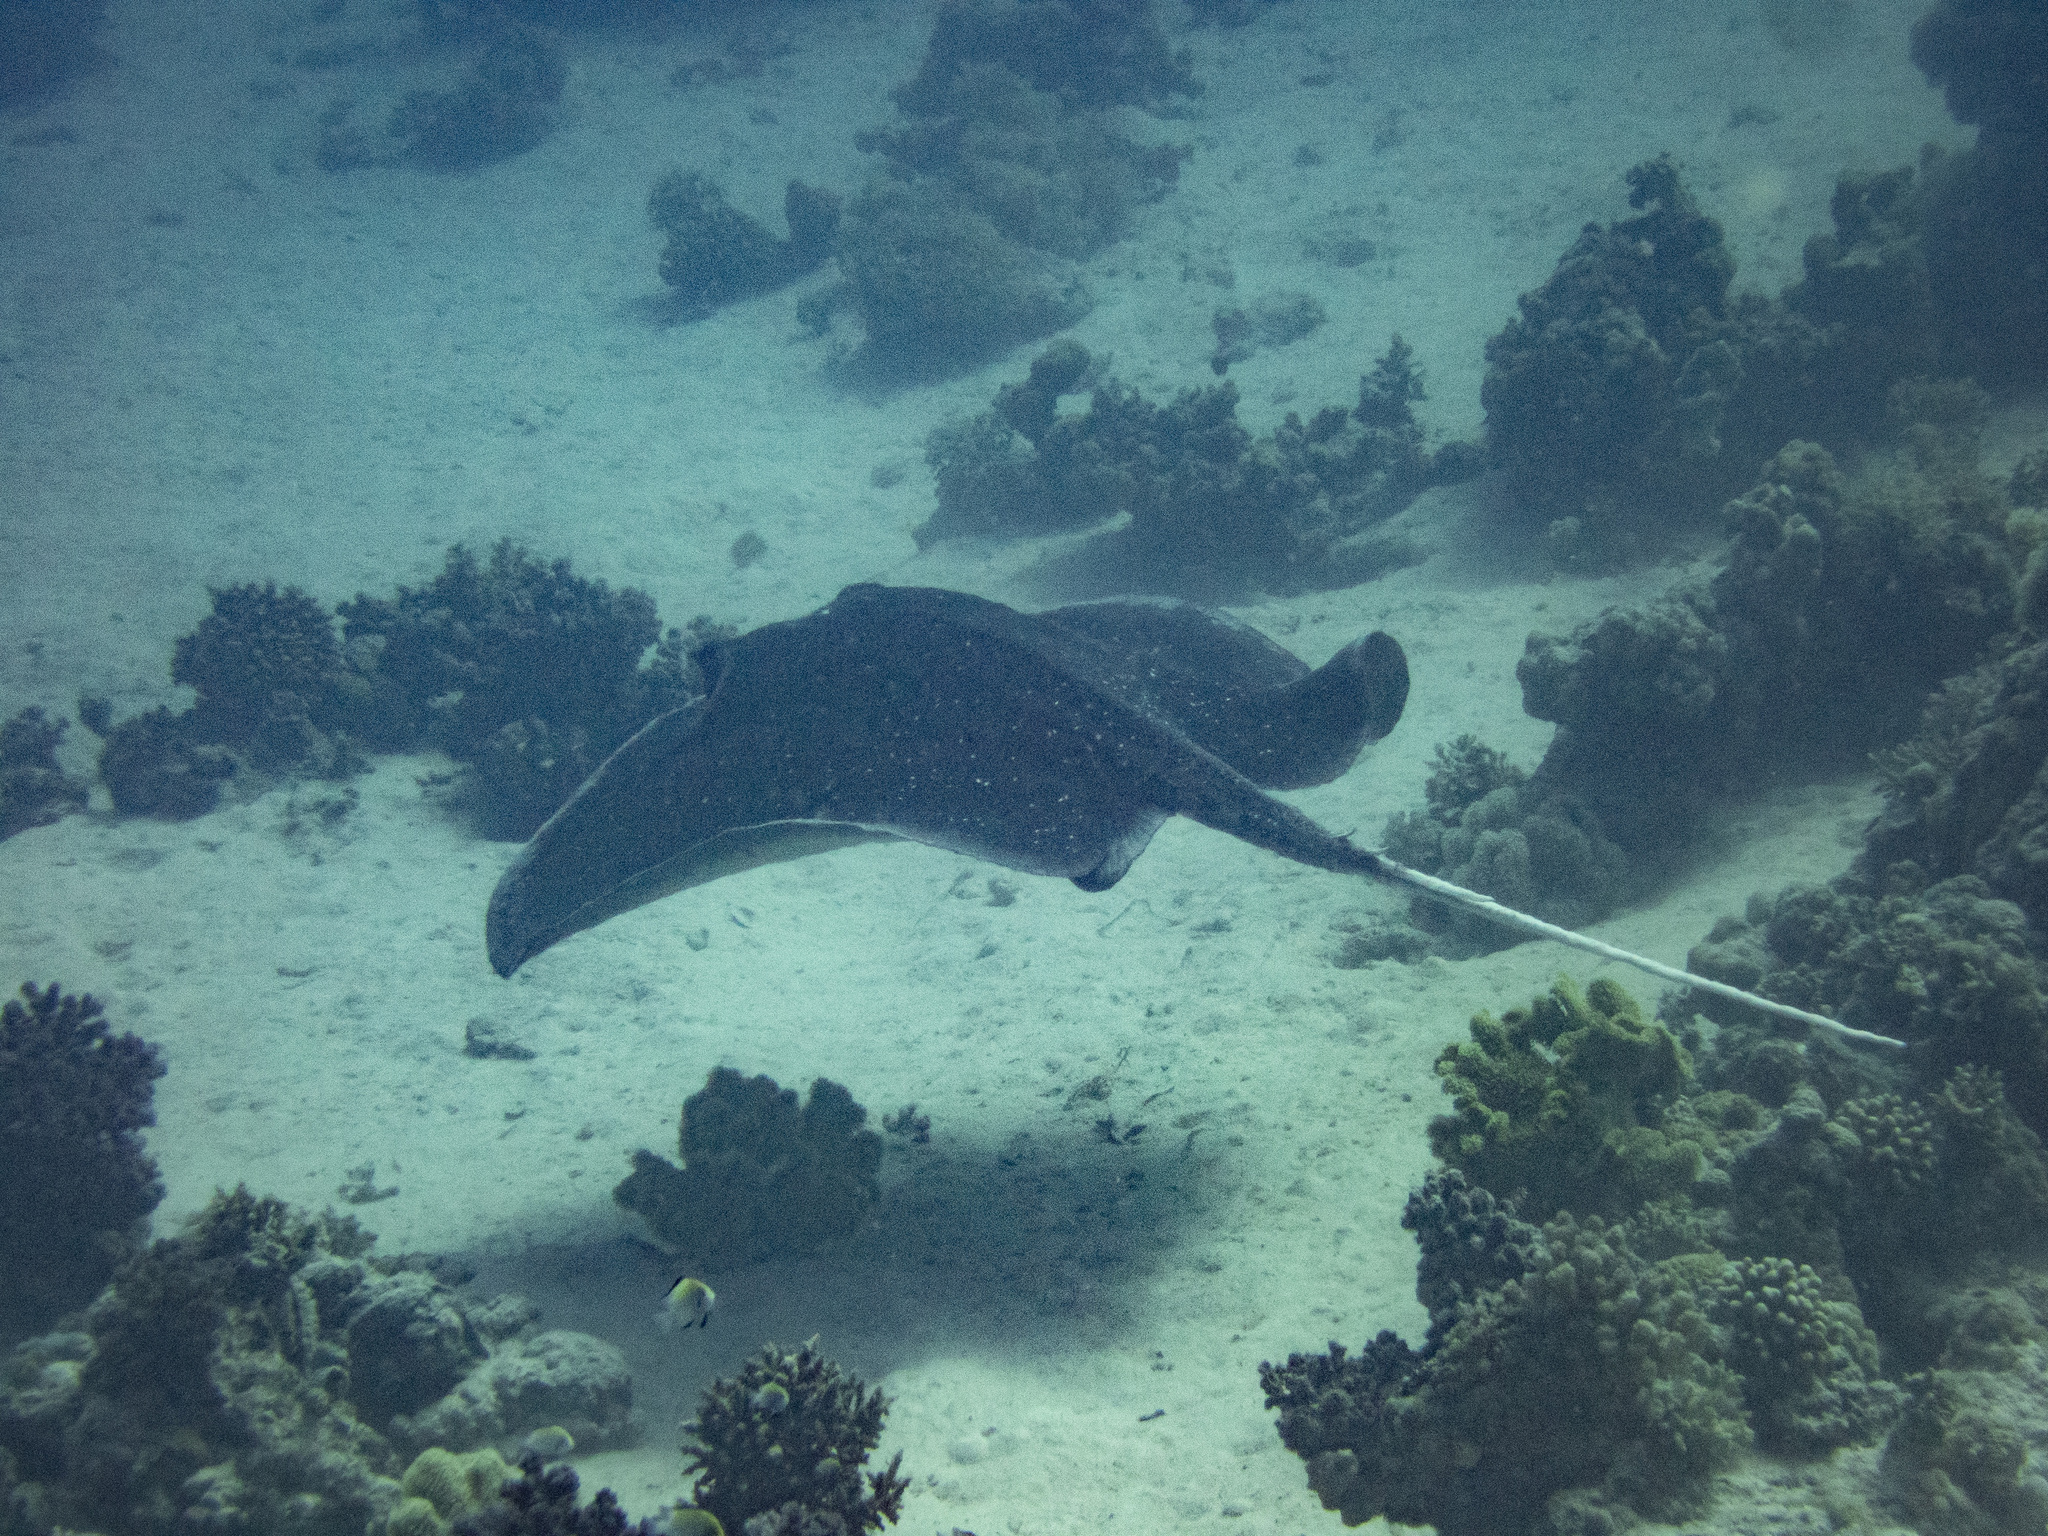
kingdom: Animalia
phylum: Chordata
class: Elasmobranchii
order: Myliobatiformes
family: Dasyatidae
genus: Urogymnus
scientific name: Urogymnus granulatus
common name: Mangrove whipray
